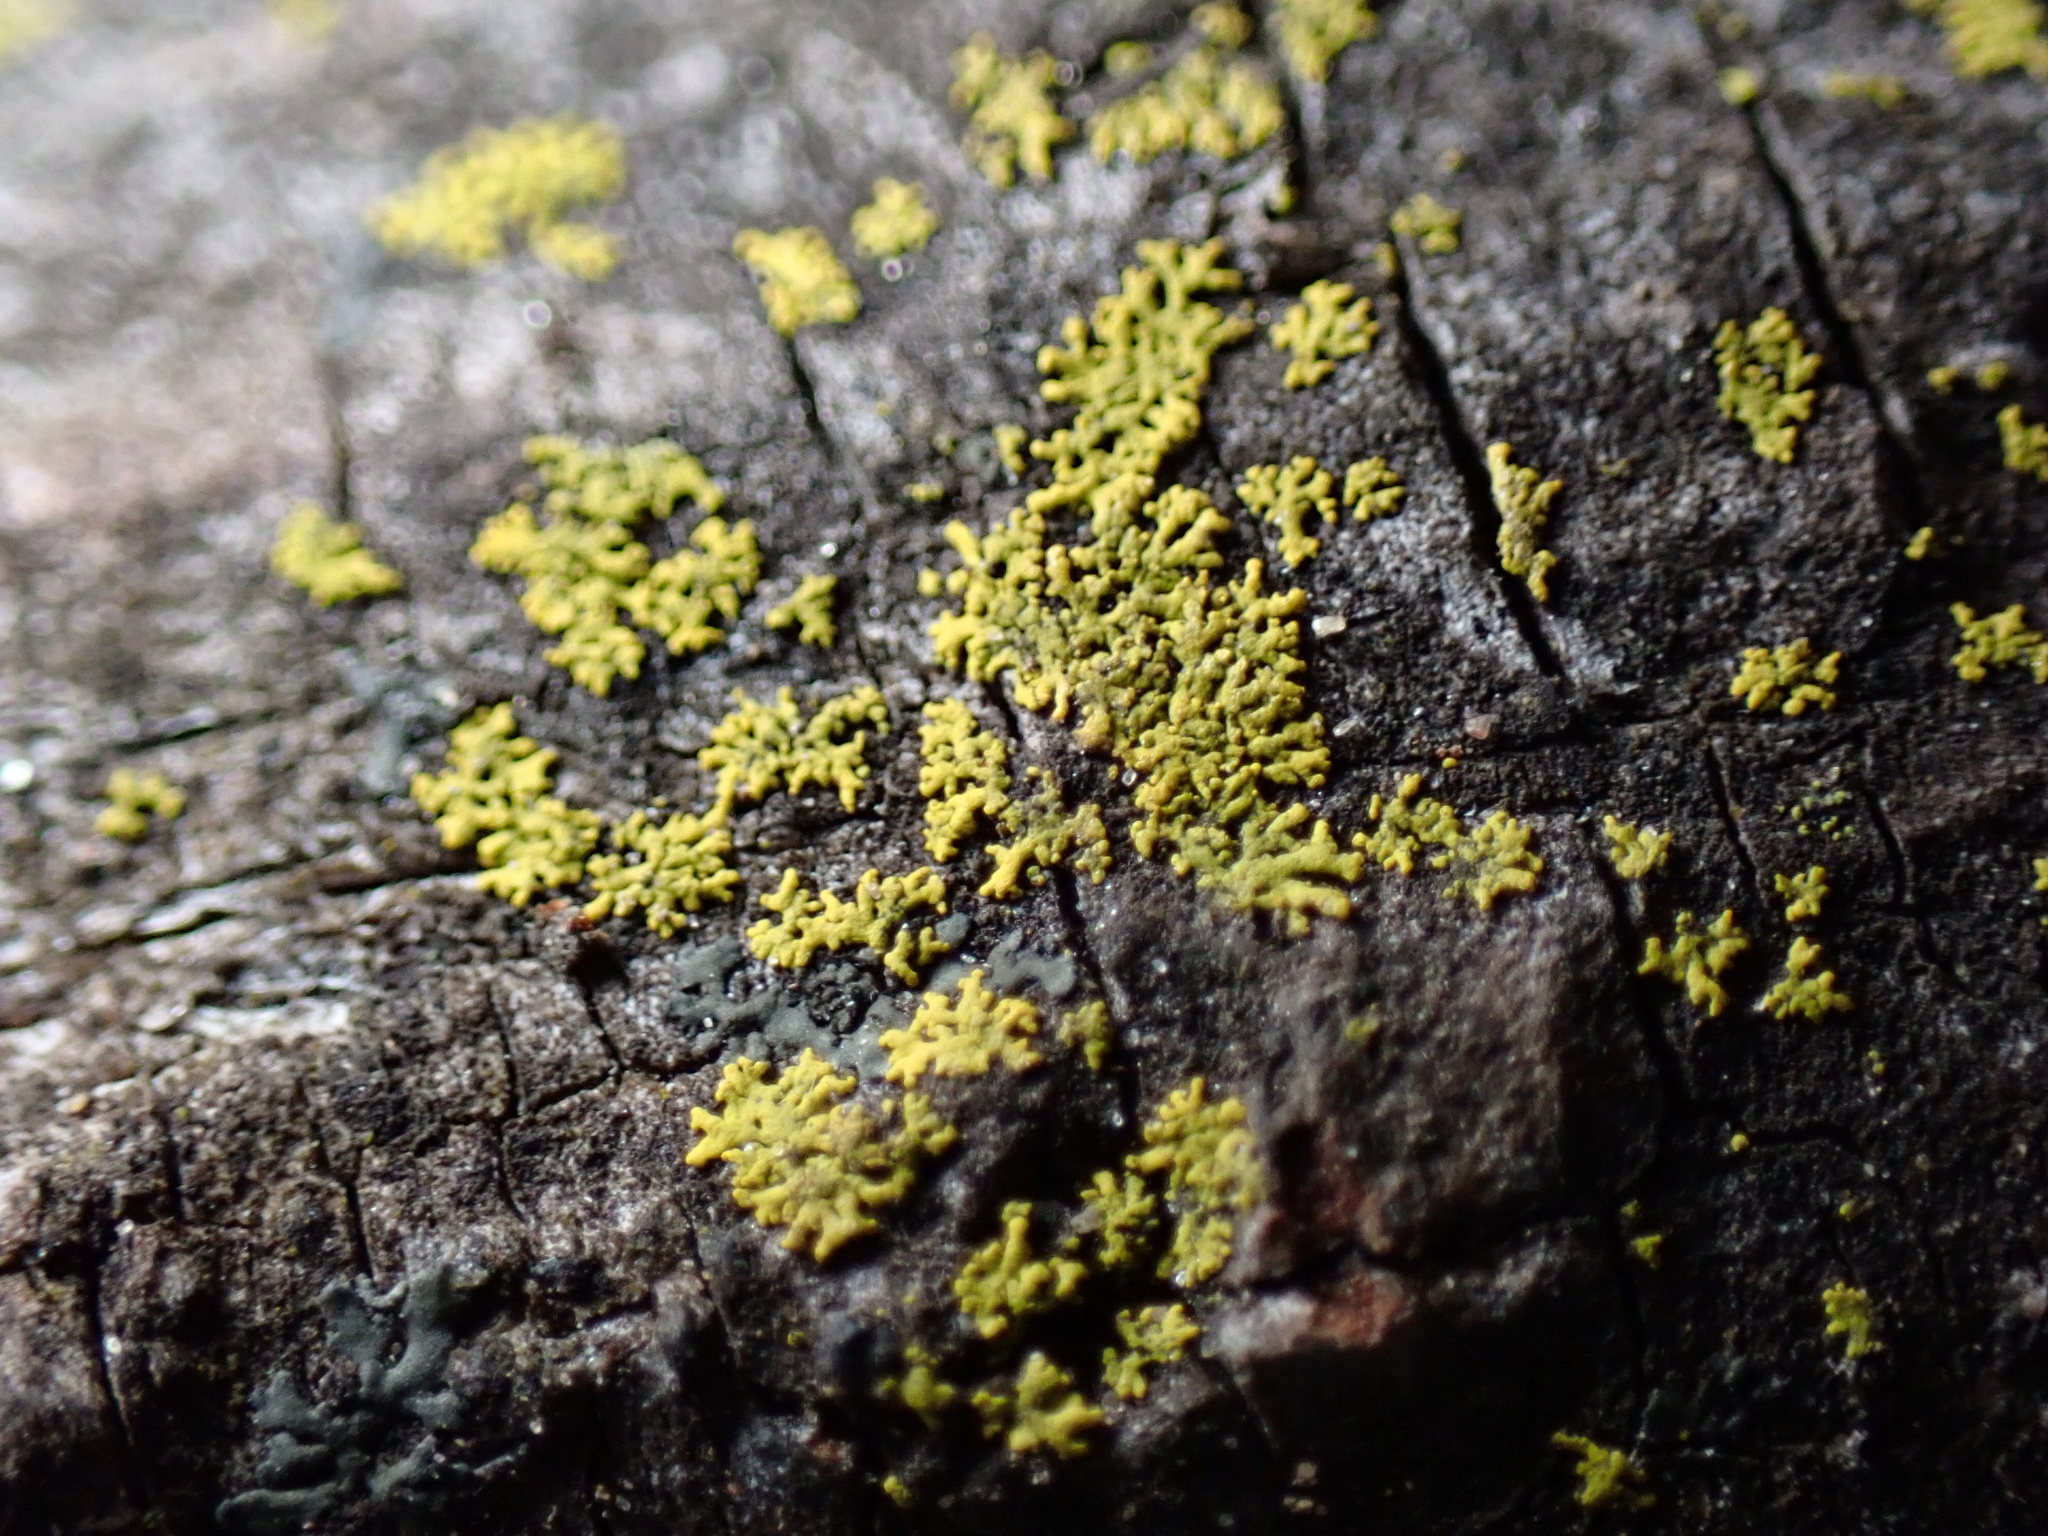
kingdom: Fungi
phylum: Ascomycota
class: Candelariomycetes
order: Candelariales
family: Candelariaceae
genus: Candelaria
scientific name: Candelaria concolor
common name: Candleflame lichen
